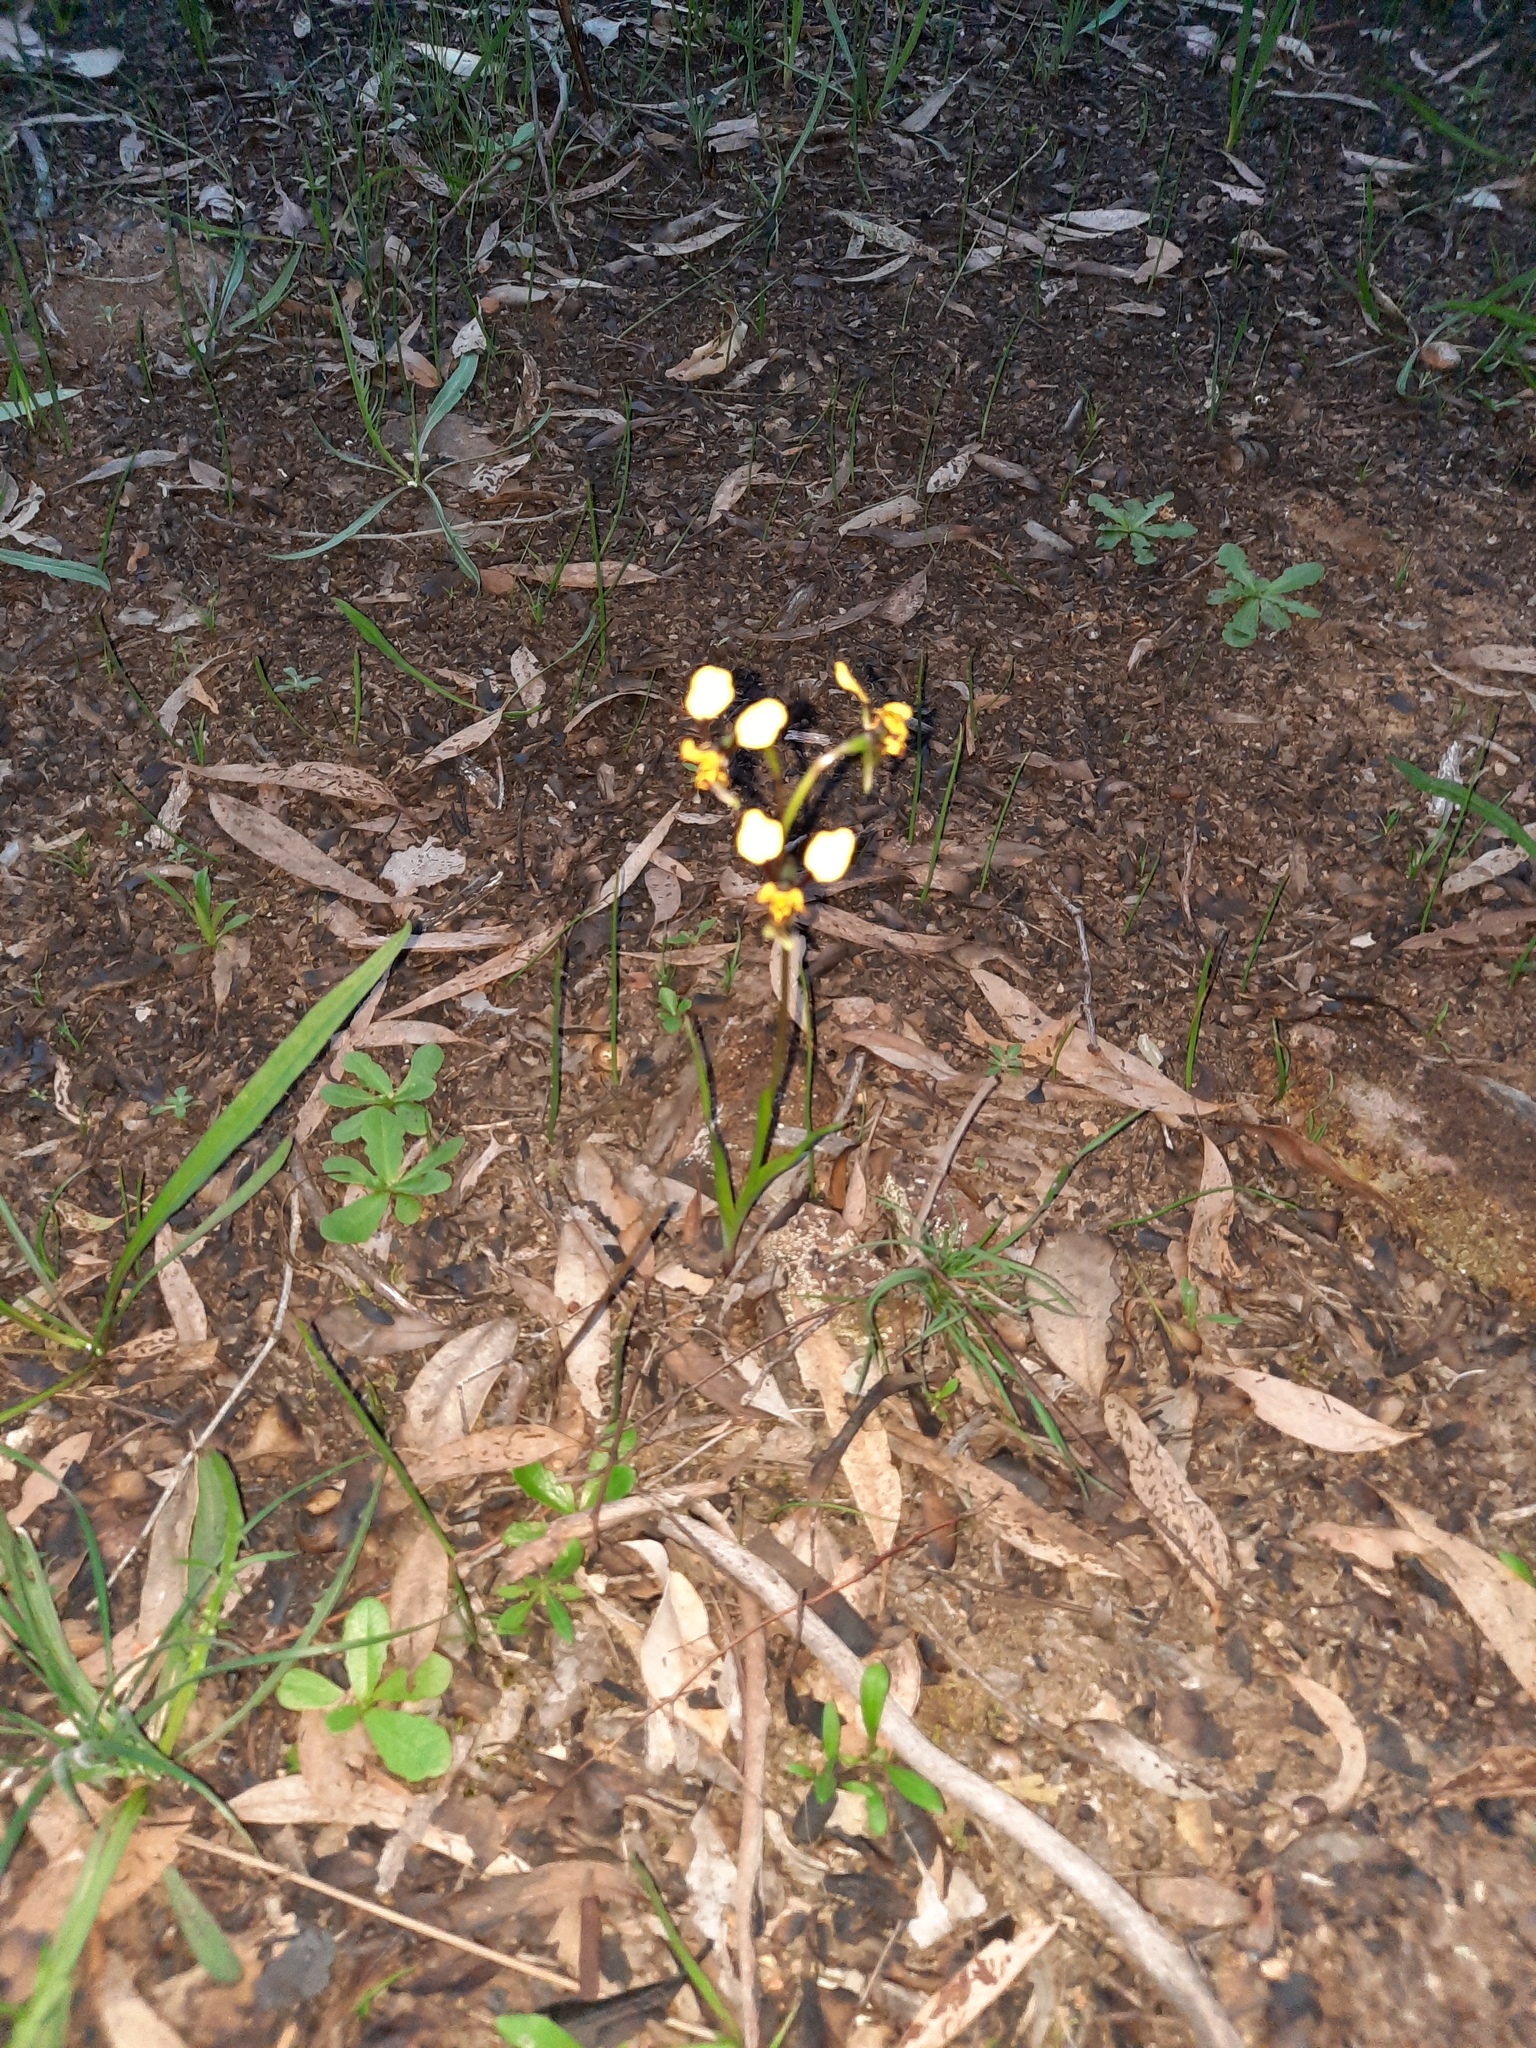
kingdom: Plantae
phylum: Tracheophyta
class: Liliopsida
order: Asparagales
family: Orchidaceae
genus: Diuris
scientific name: Diuris pardina
